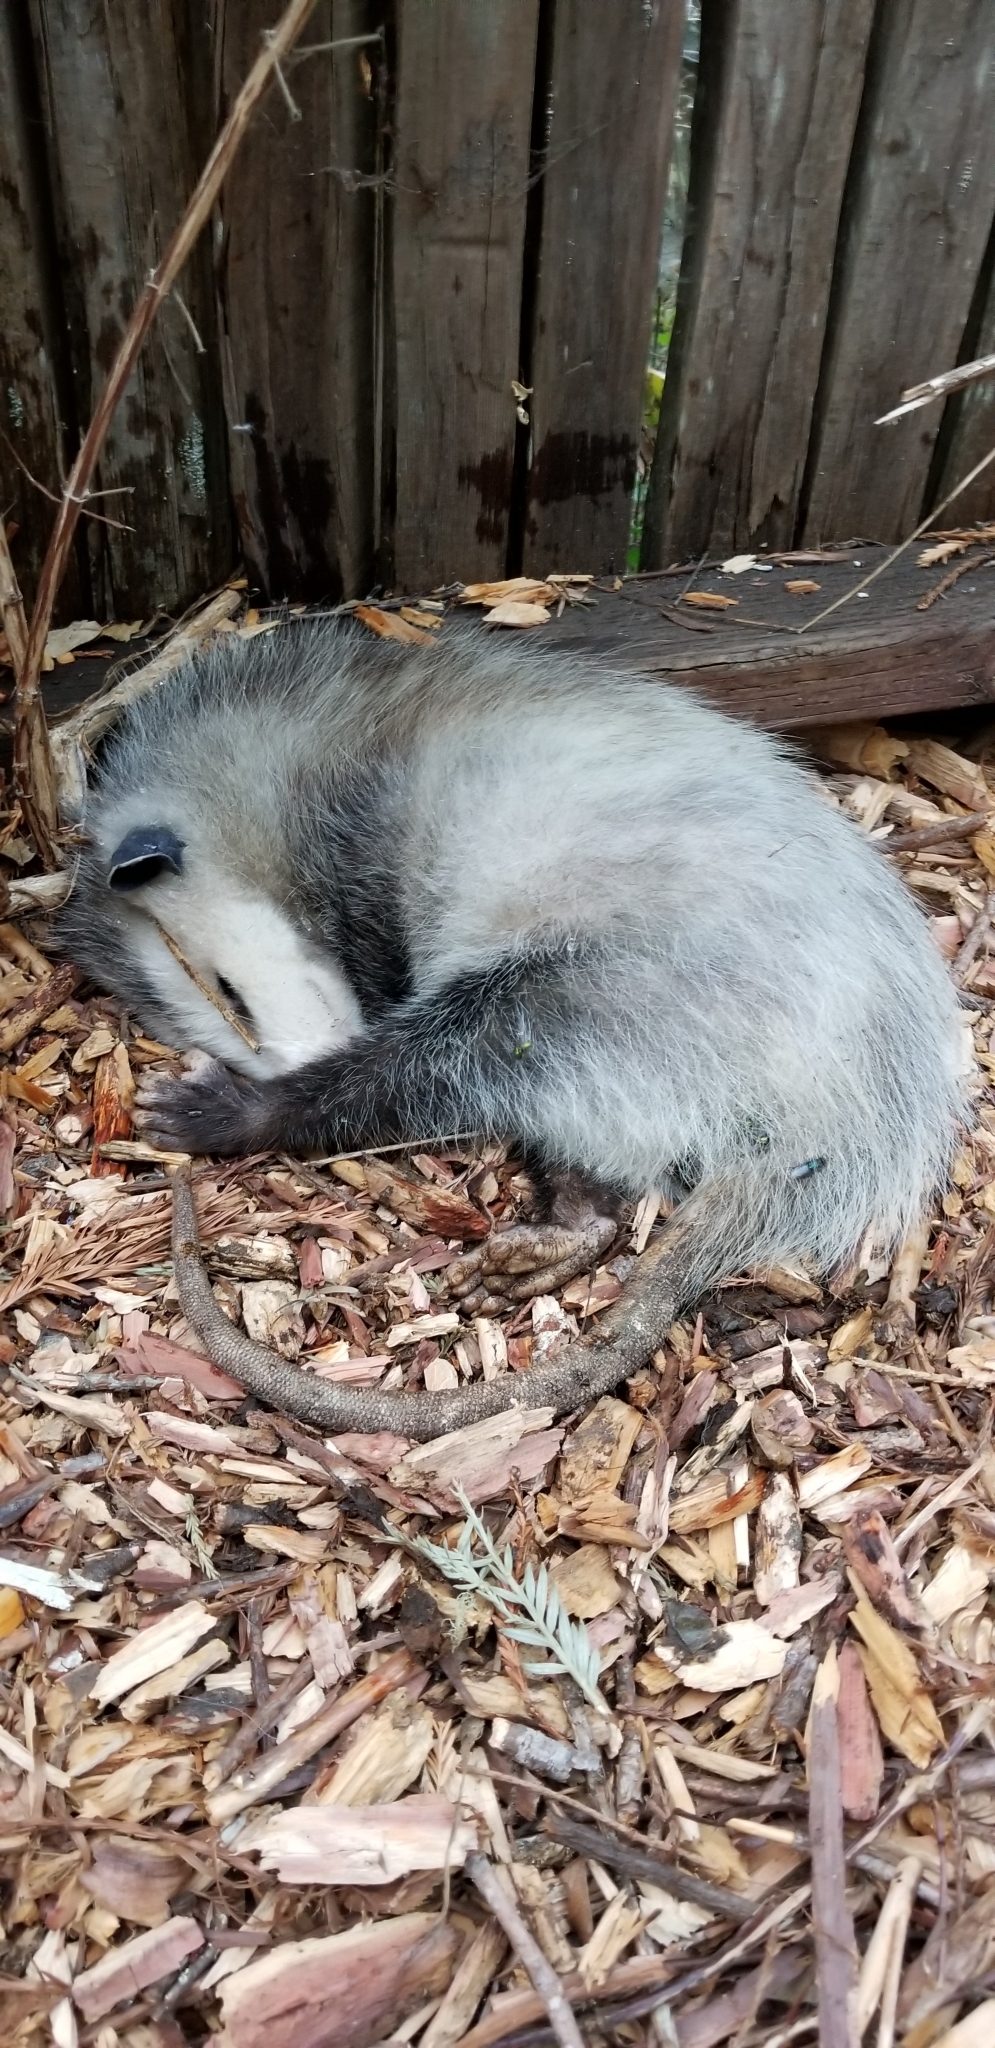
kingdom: Animalia
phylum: Chordata
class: Mammalia
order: Didelphimorphia
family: Didelphidae
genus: Didelphis
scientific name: Didelphis virginiana
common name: Virginia opossum
